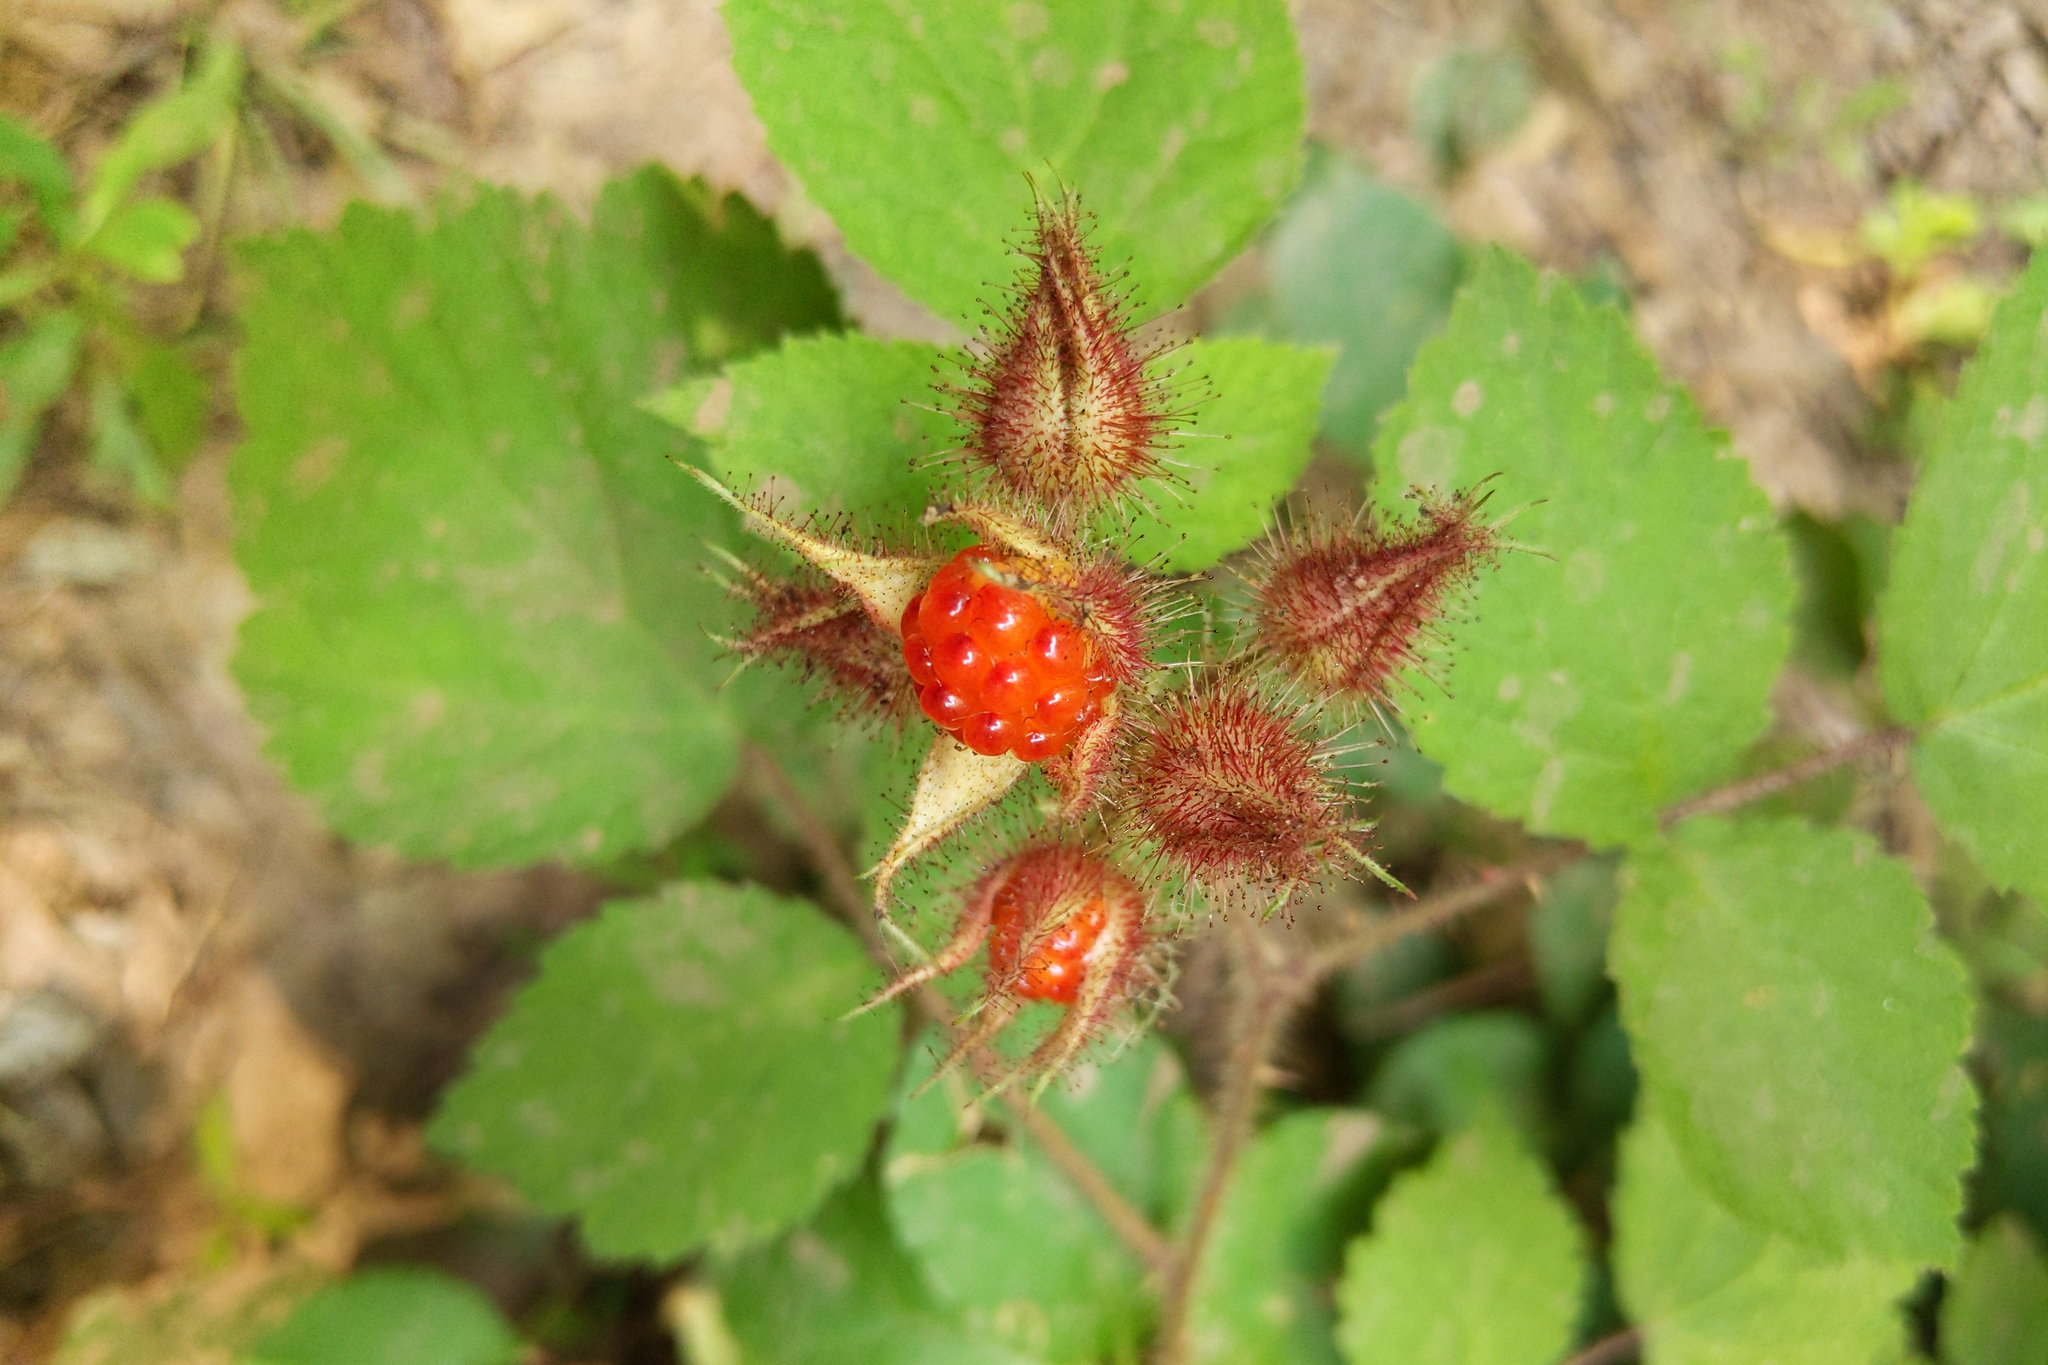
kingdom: Plantae
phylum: Tracheophyta
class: Magnoliopsida
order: Rosales
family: Rosaceae
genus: Rubus
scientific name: Rubus phoenicolasius
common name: Japanese wineberry
